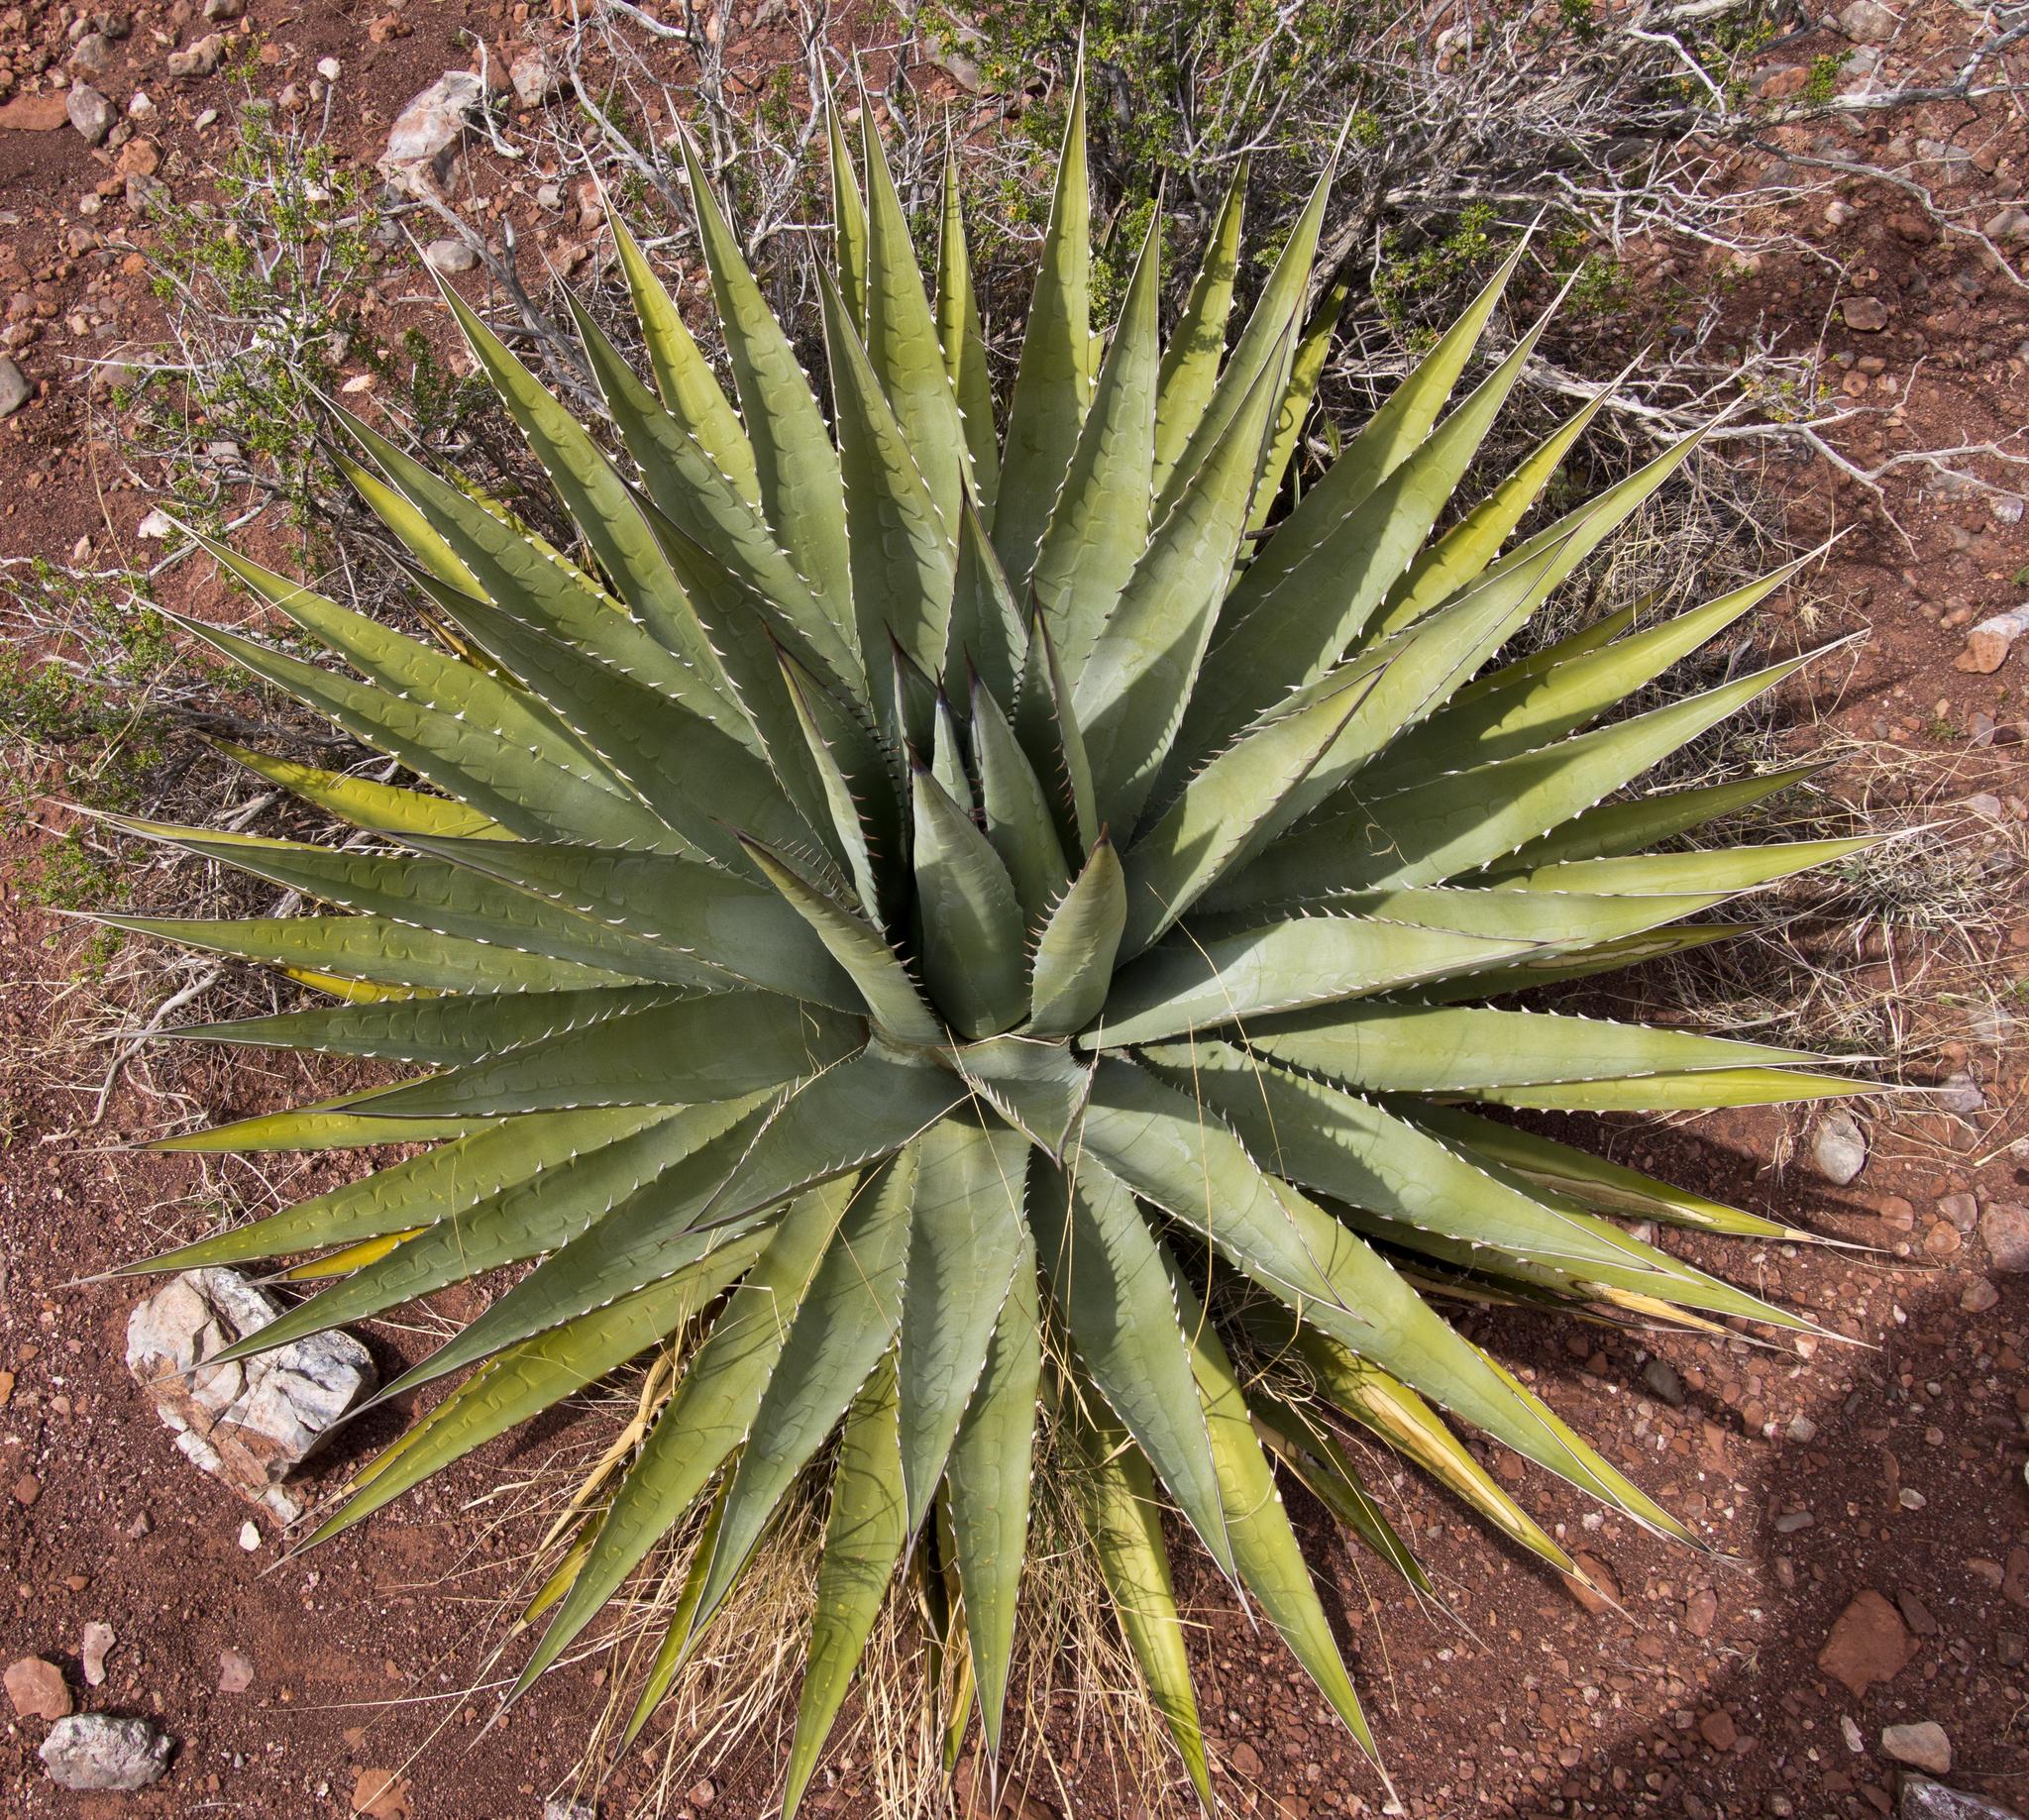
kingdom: Plantae
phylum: Tracheophyta
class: Liliopsida
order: Asparagales
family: Asparagaceae
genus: Agave
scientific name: Agave utahensis
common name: Utah agave
